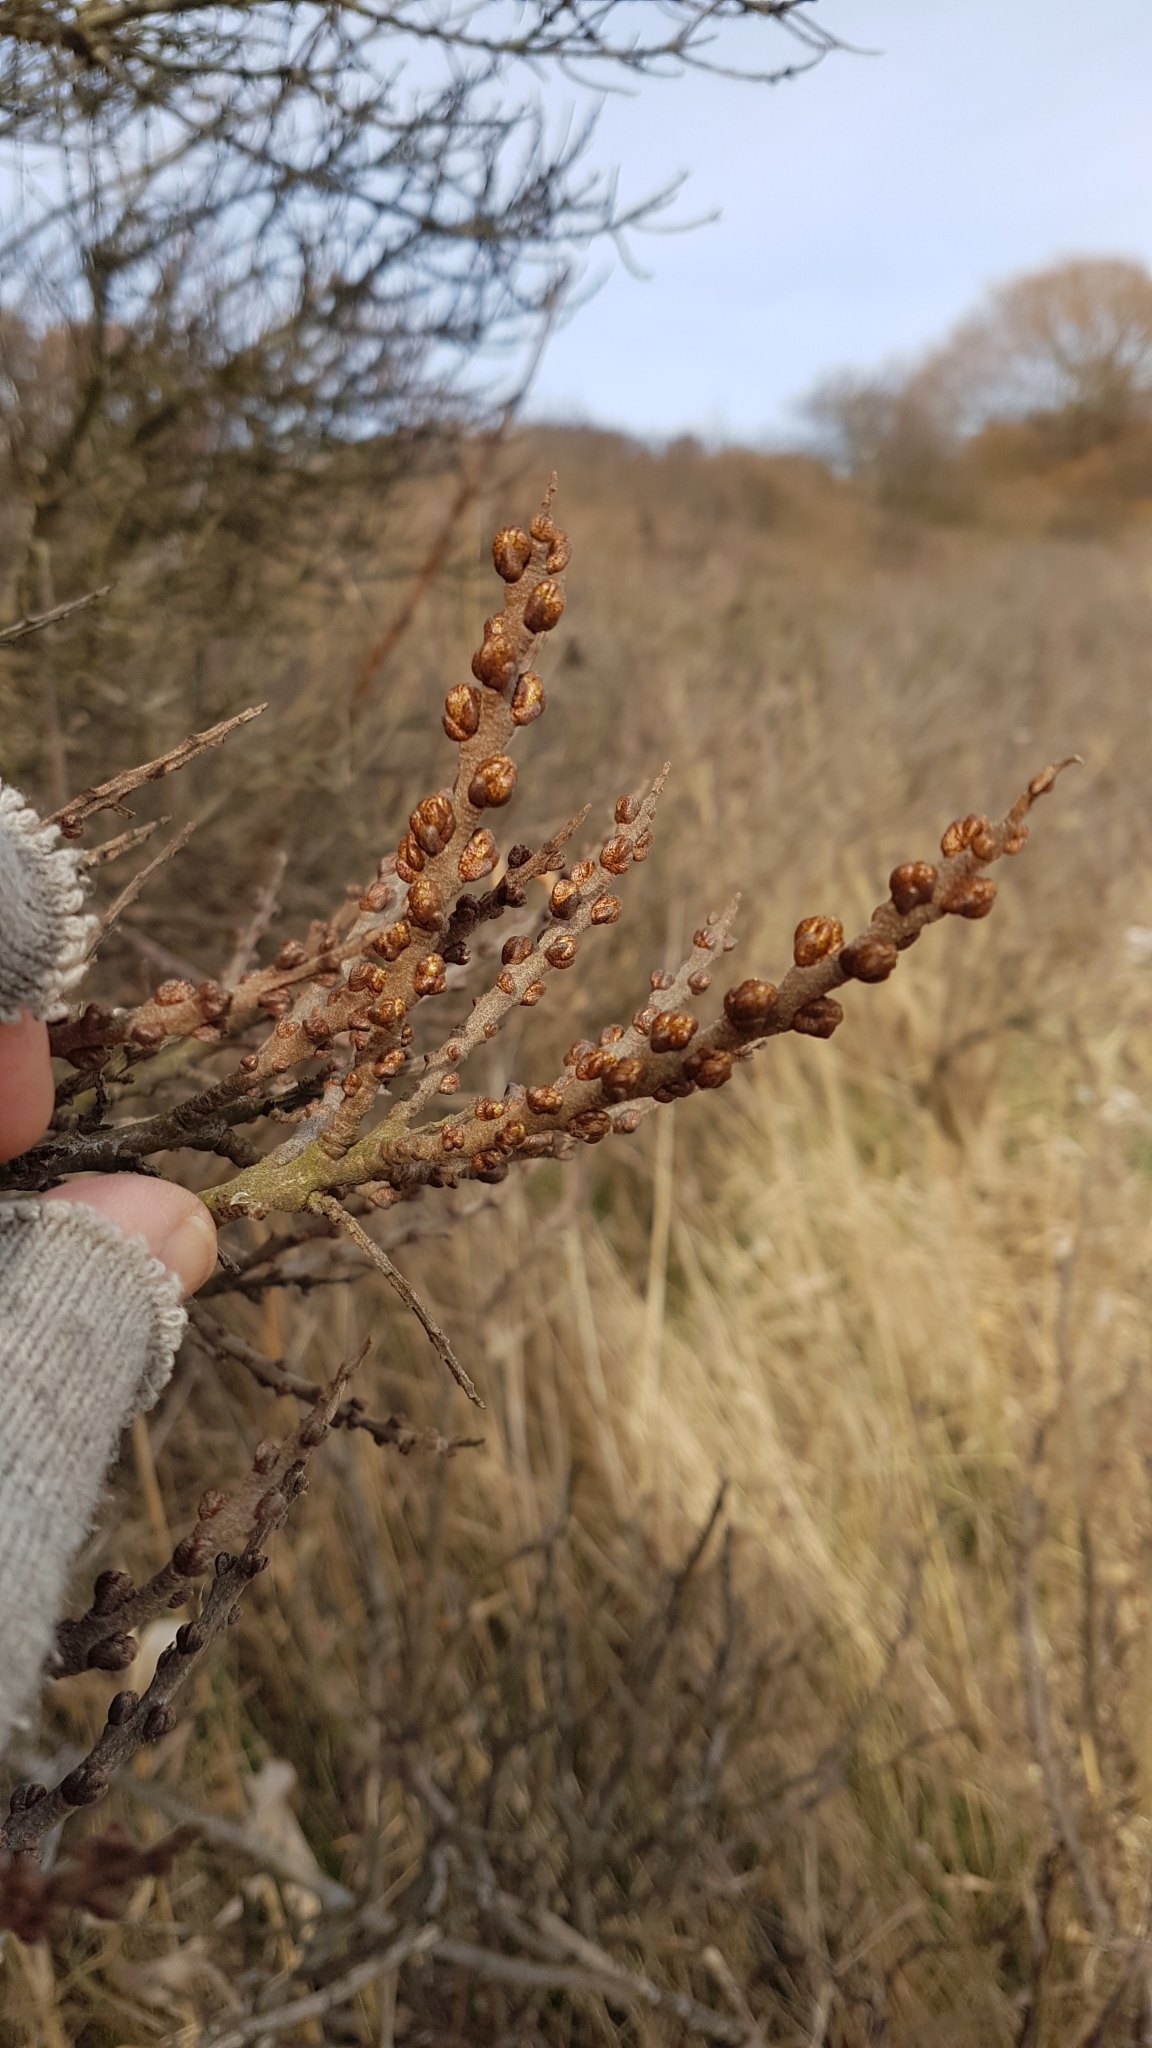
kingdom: Plantae
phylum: Tracheophyta
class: Magnoliopsida
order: Rosales
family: Elaeagnaceae
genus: Hippophae
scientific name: Hippophae rhamnoides
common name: Sea-buckthorn
